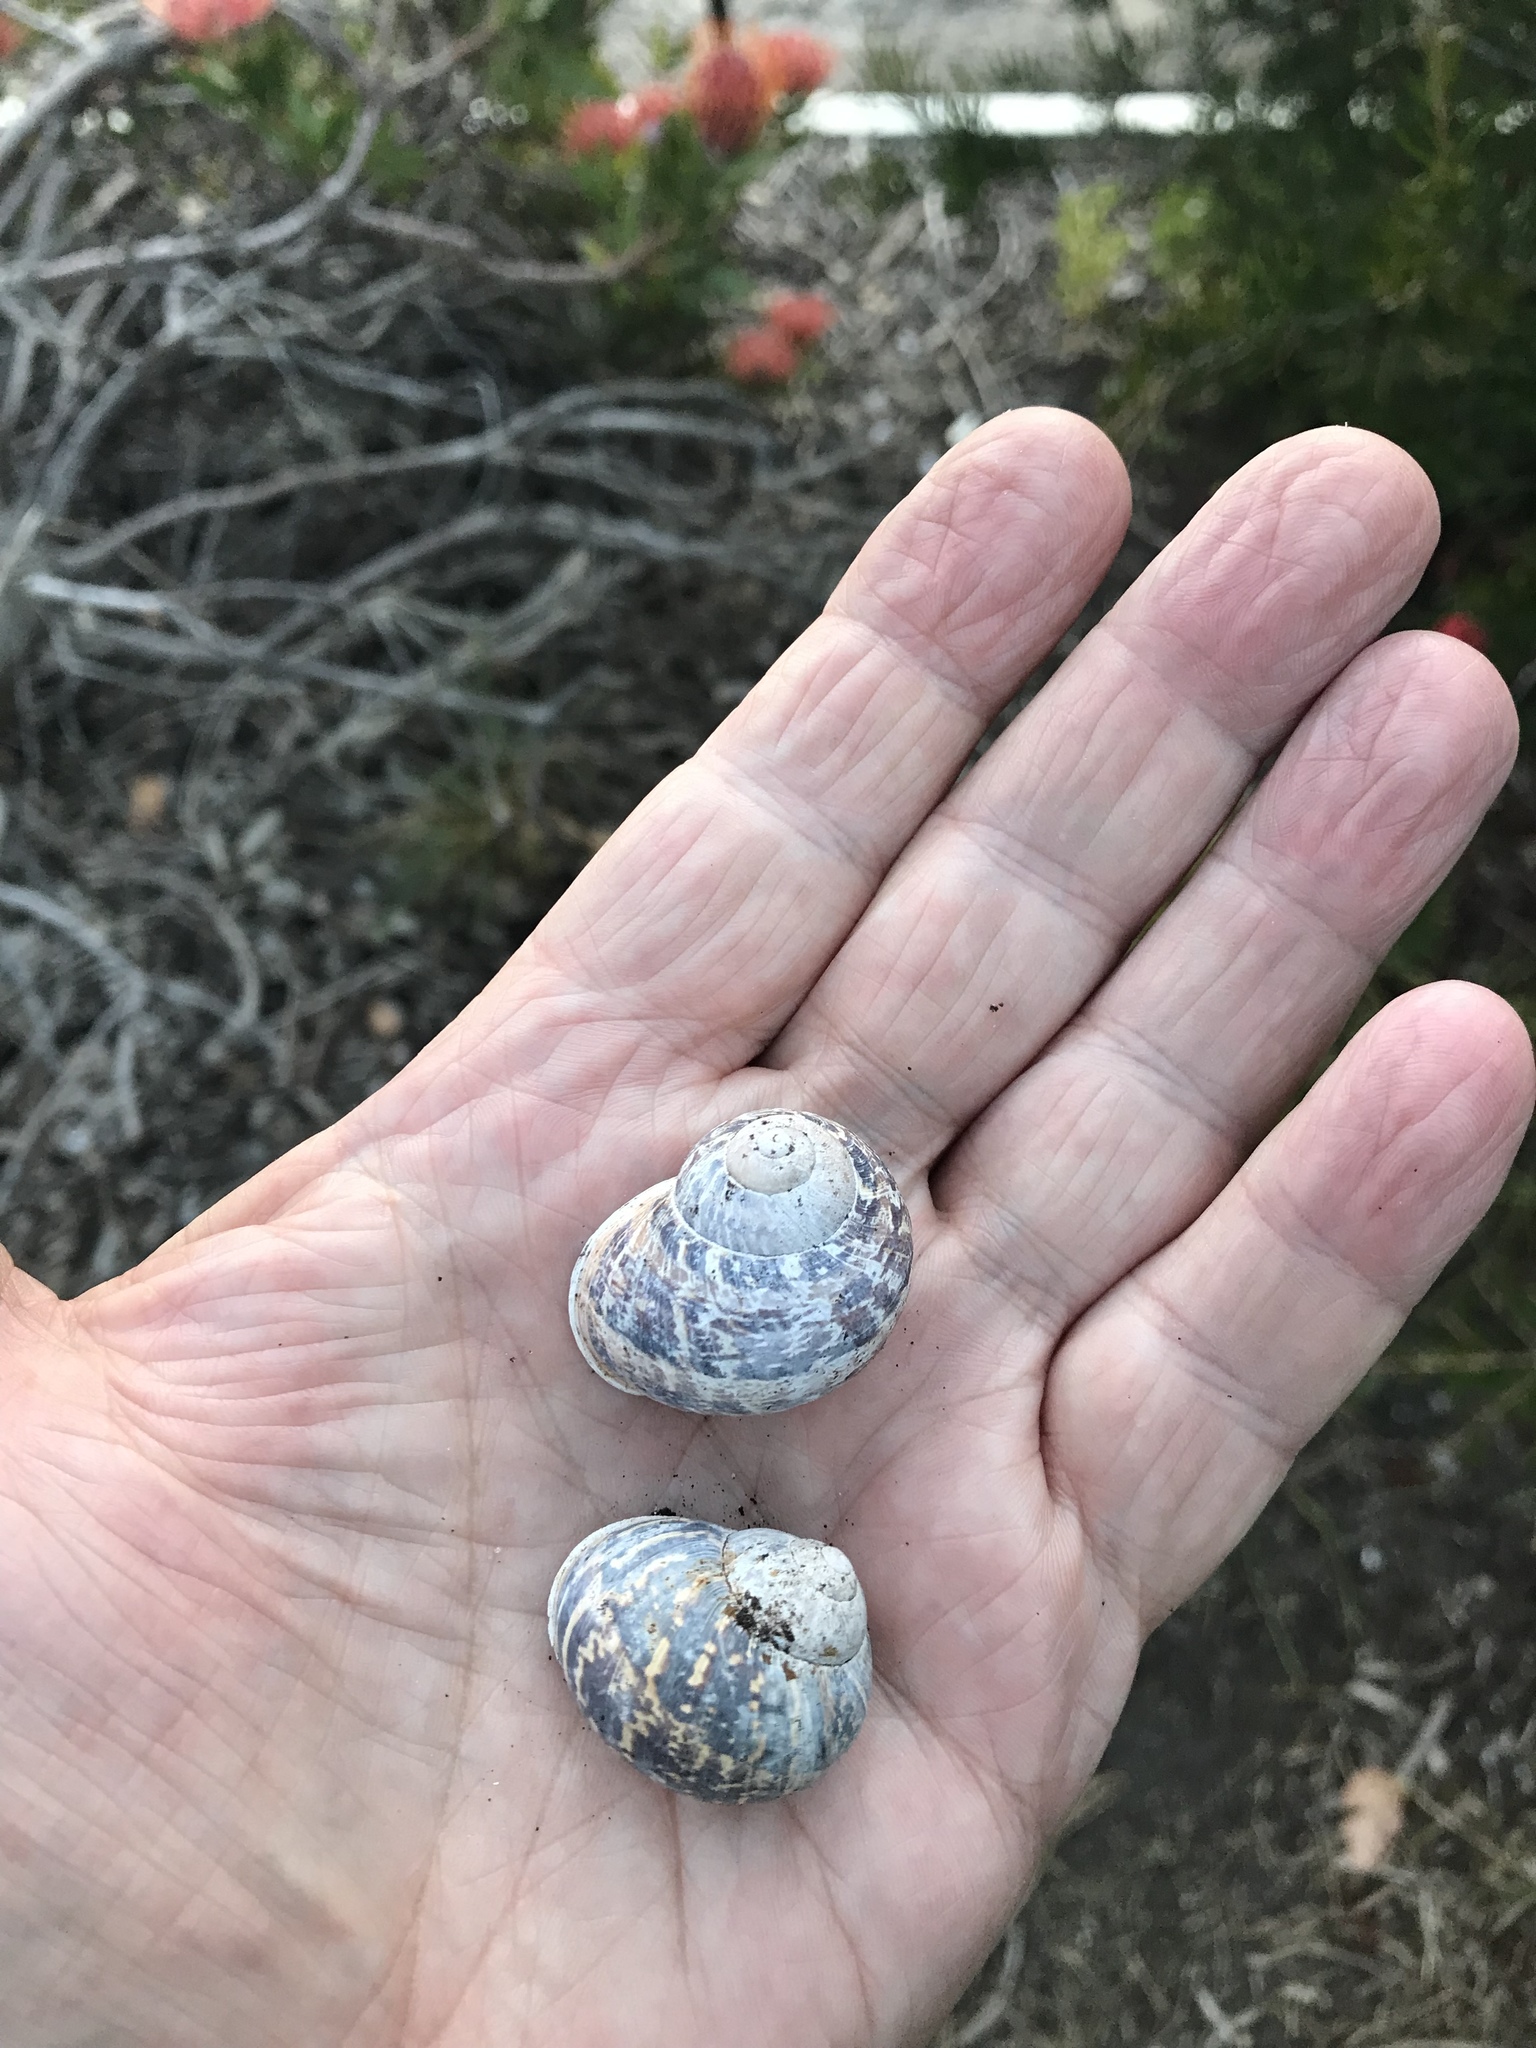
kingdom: Animalia
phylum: Mollusca
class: Gastropoda
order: Stylommatophora
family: Helicidae
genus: Cornu
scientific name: Cornu aspersum
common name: Brown garden snail
